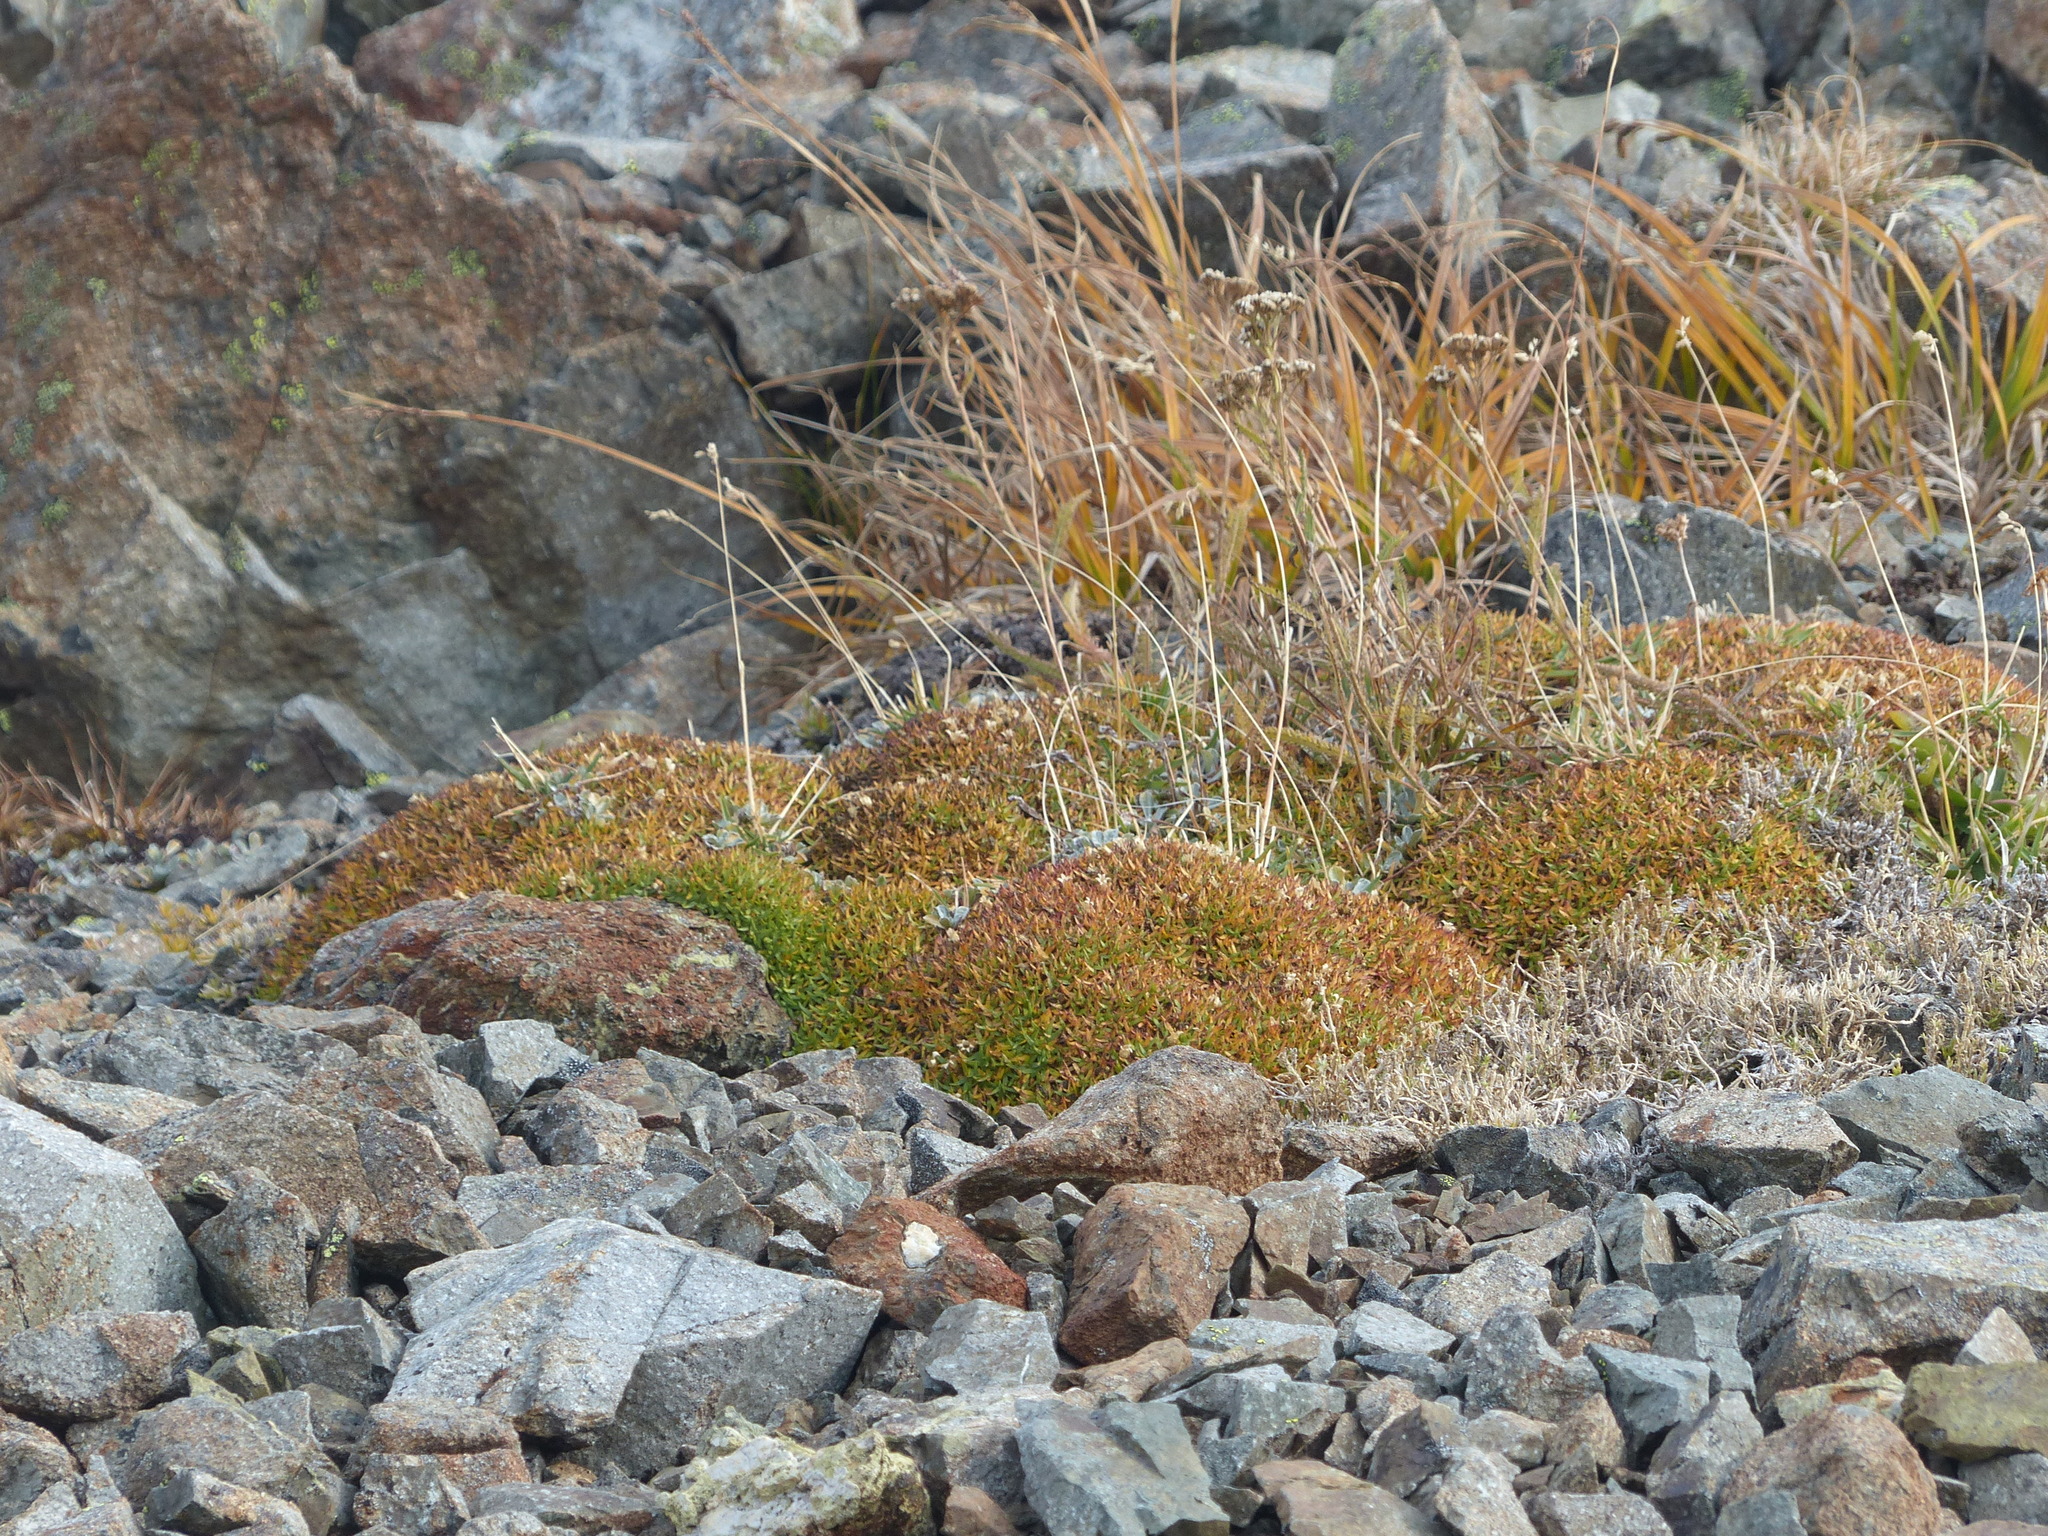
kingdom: Plantae
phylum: Tracheophyta
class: Magnoliopsida
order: Caryophyllales
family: Caryophyllaceae
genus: Silene
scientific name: Silene acaulis
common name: Moss campion
